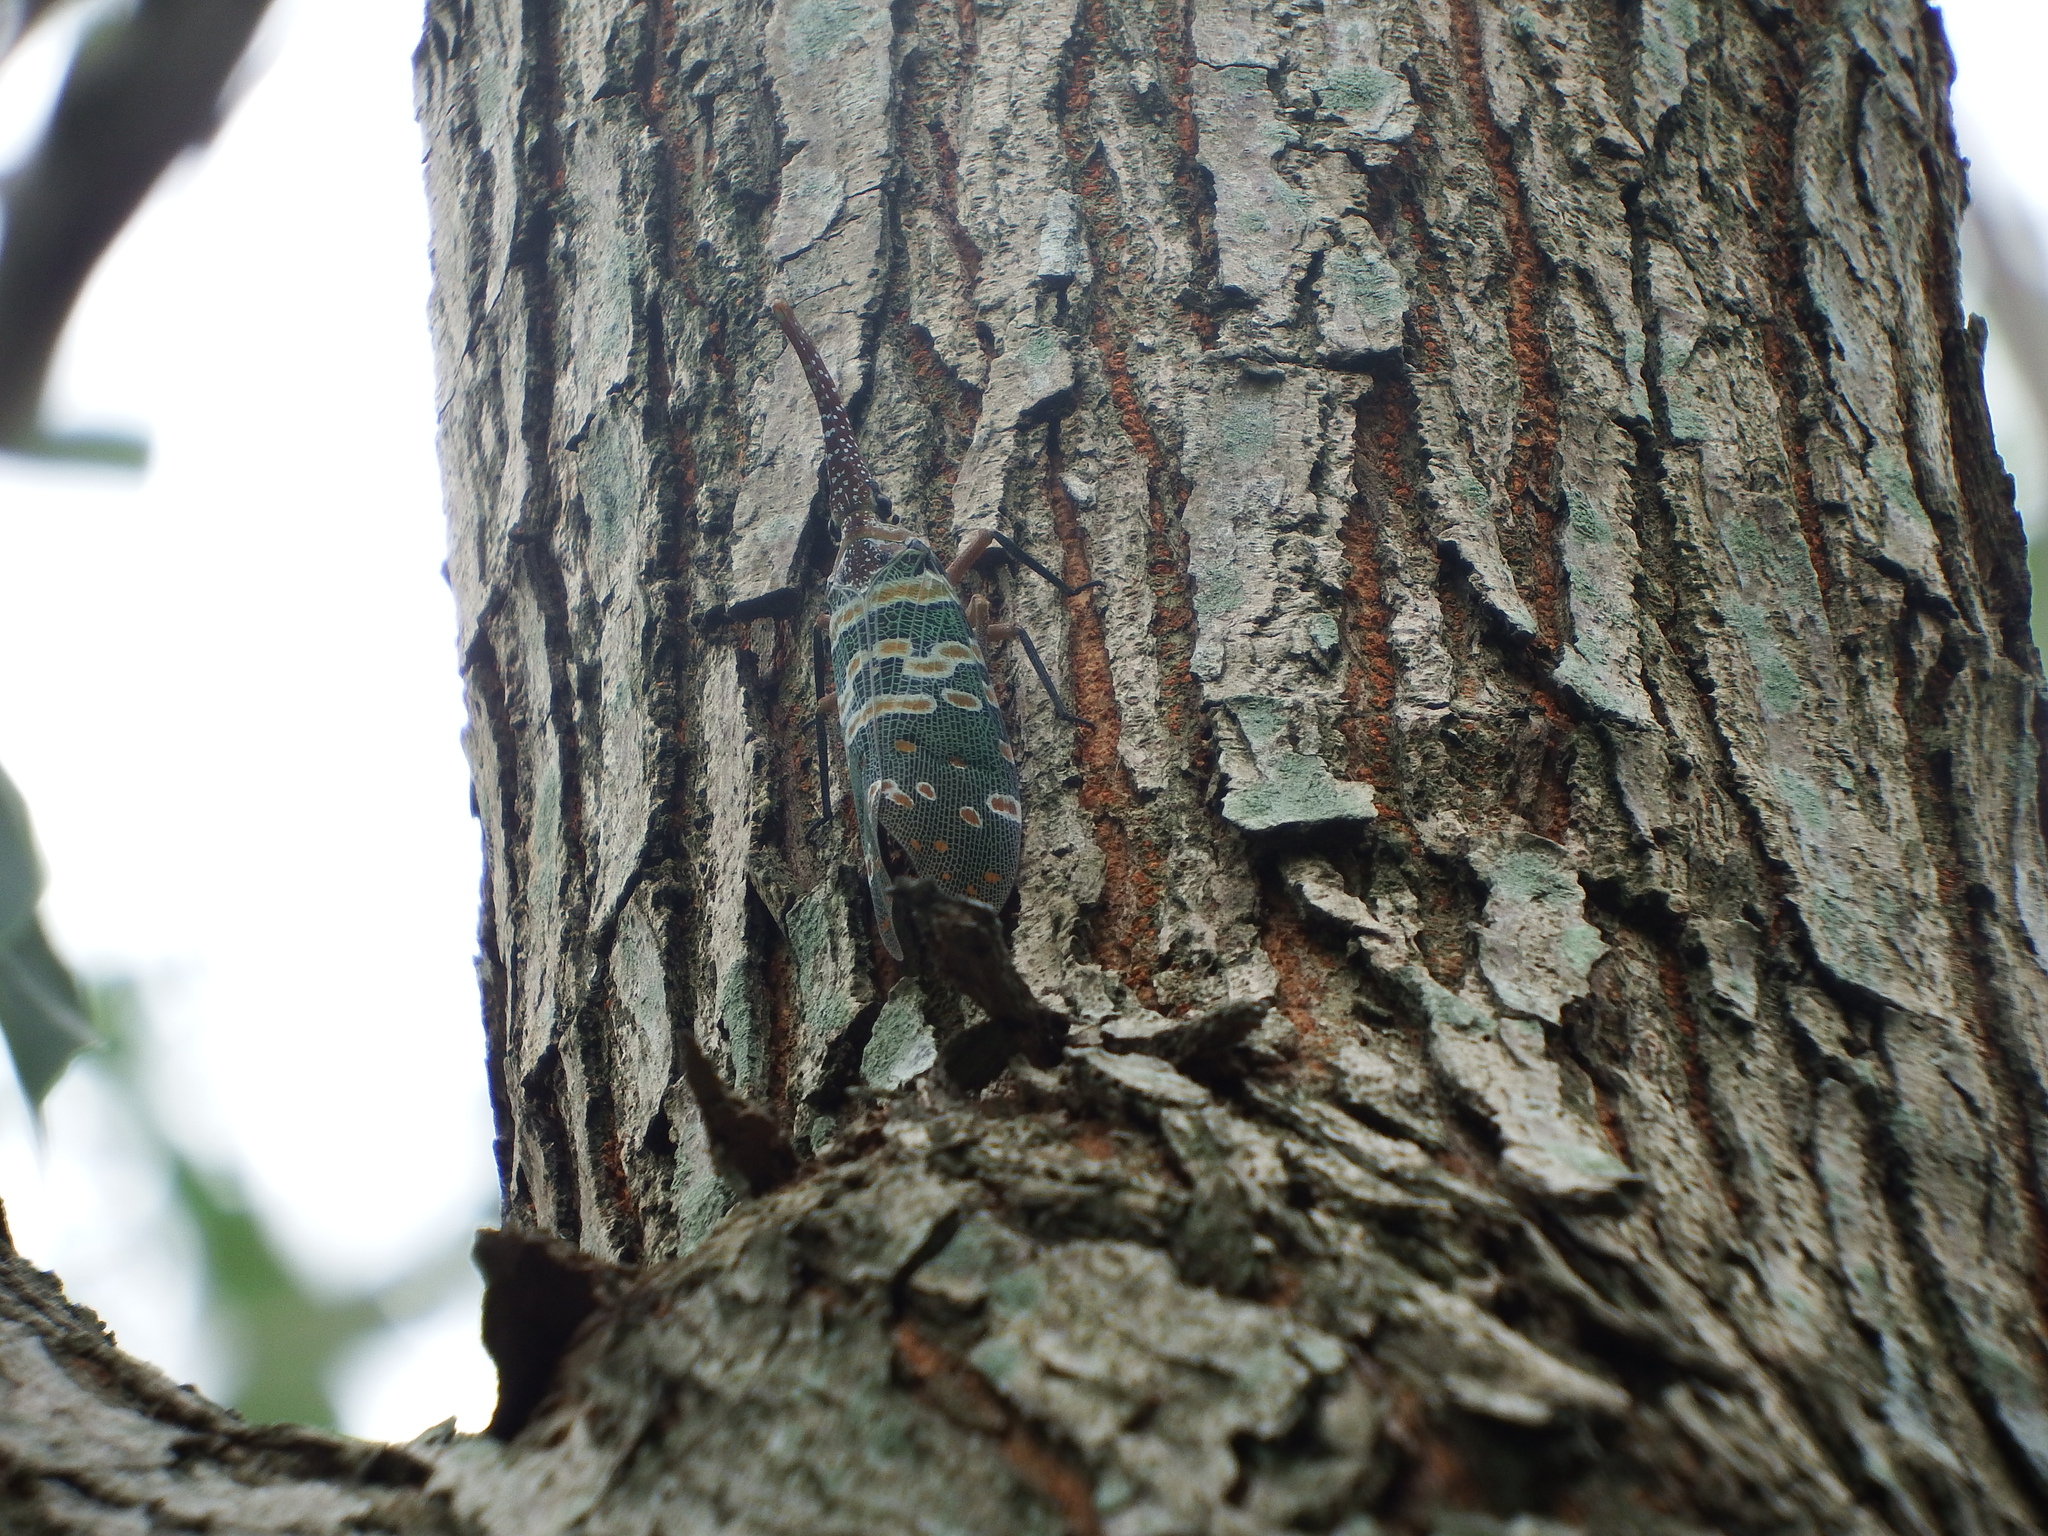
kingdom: Animalia
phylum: Arthropoda
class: Insecta
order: Hemiptera
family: Fulgoridae
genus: Pyrops
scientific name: Pyrops candelaria
